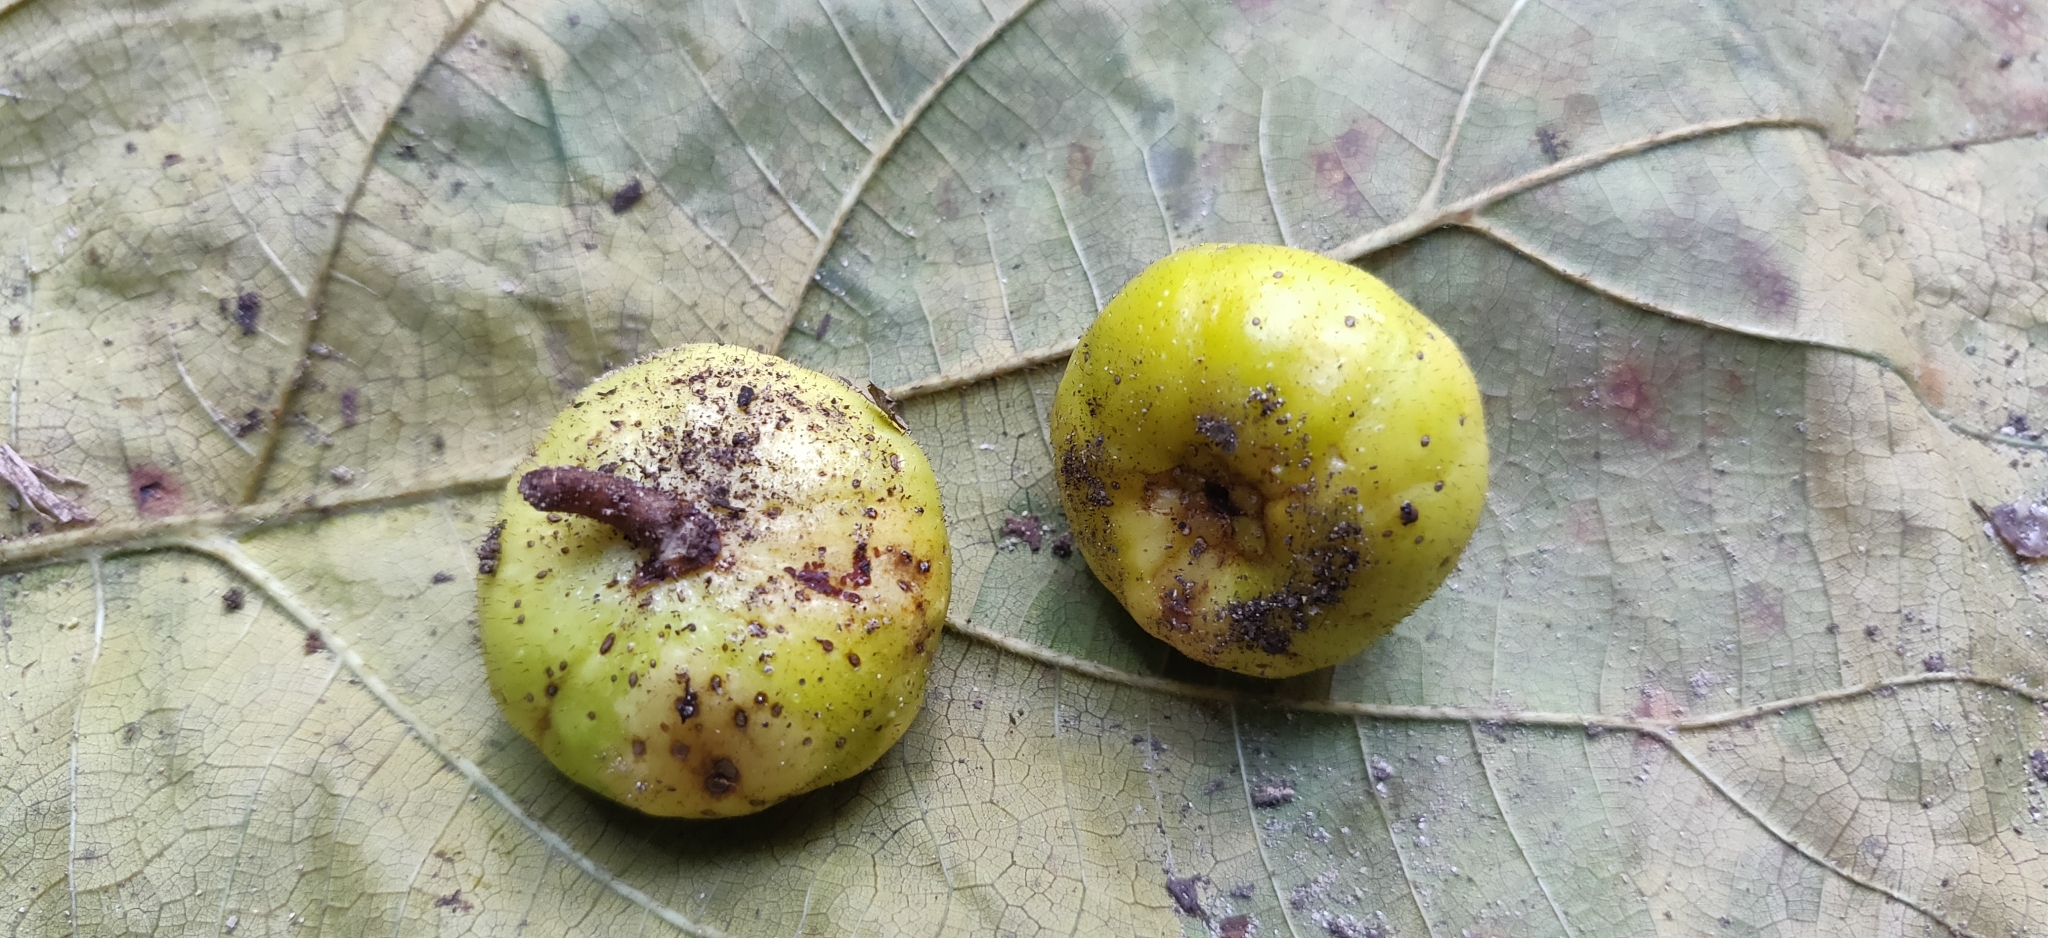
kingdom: Plantae
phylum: Tracheophyta
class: Magnoliopsida
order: Rosales
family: Moraceae
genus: Ficus
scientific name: Ficus hispida
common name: Hairy fig
